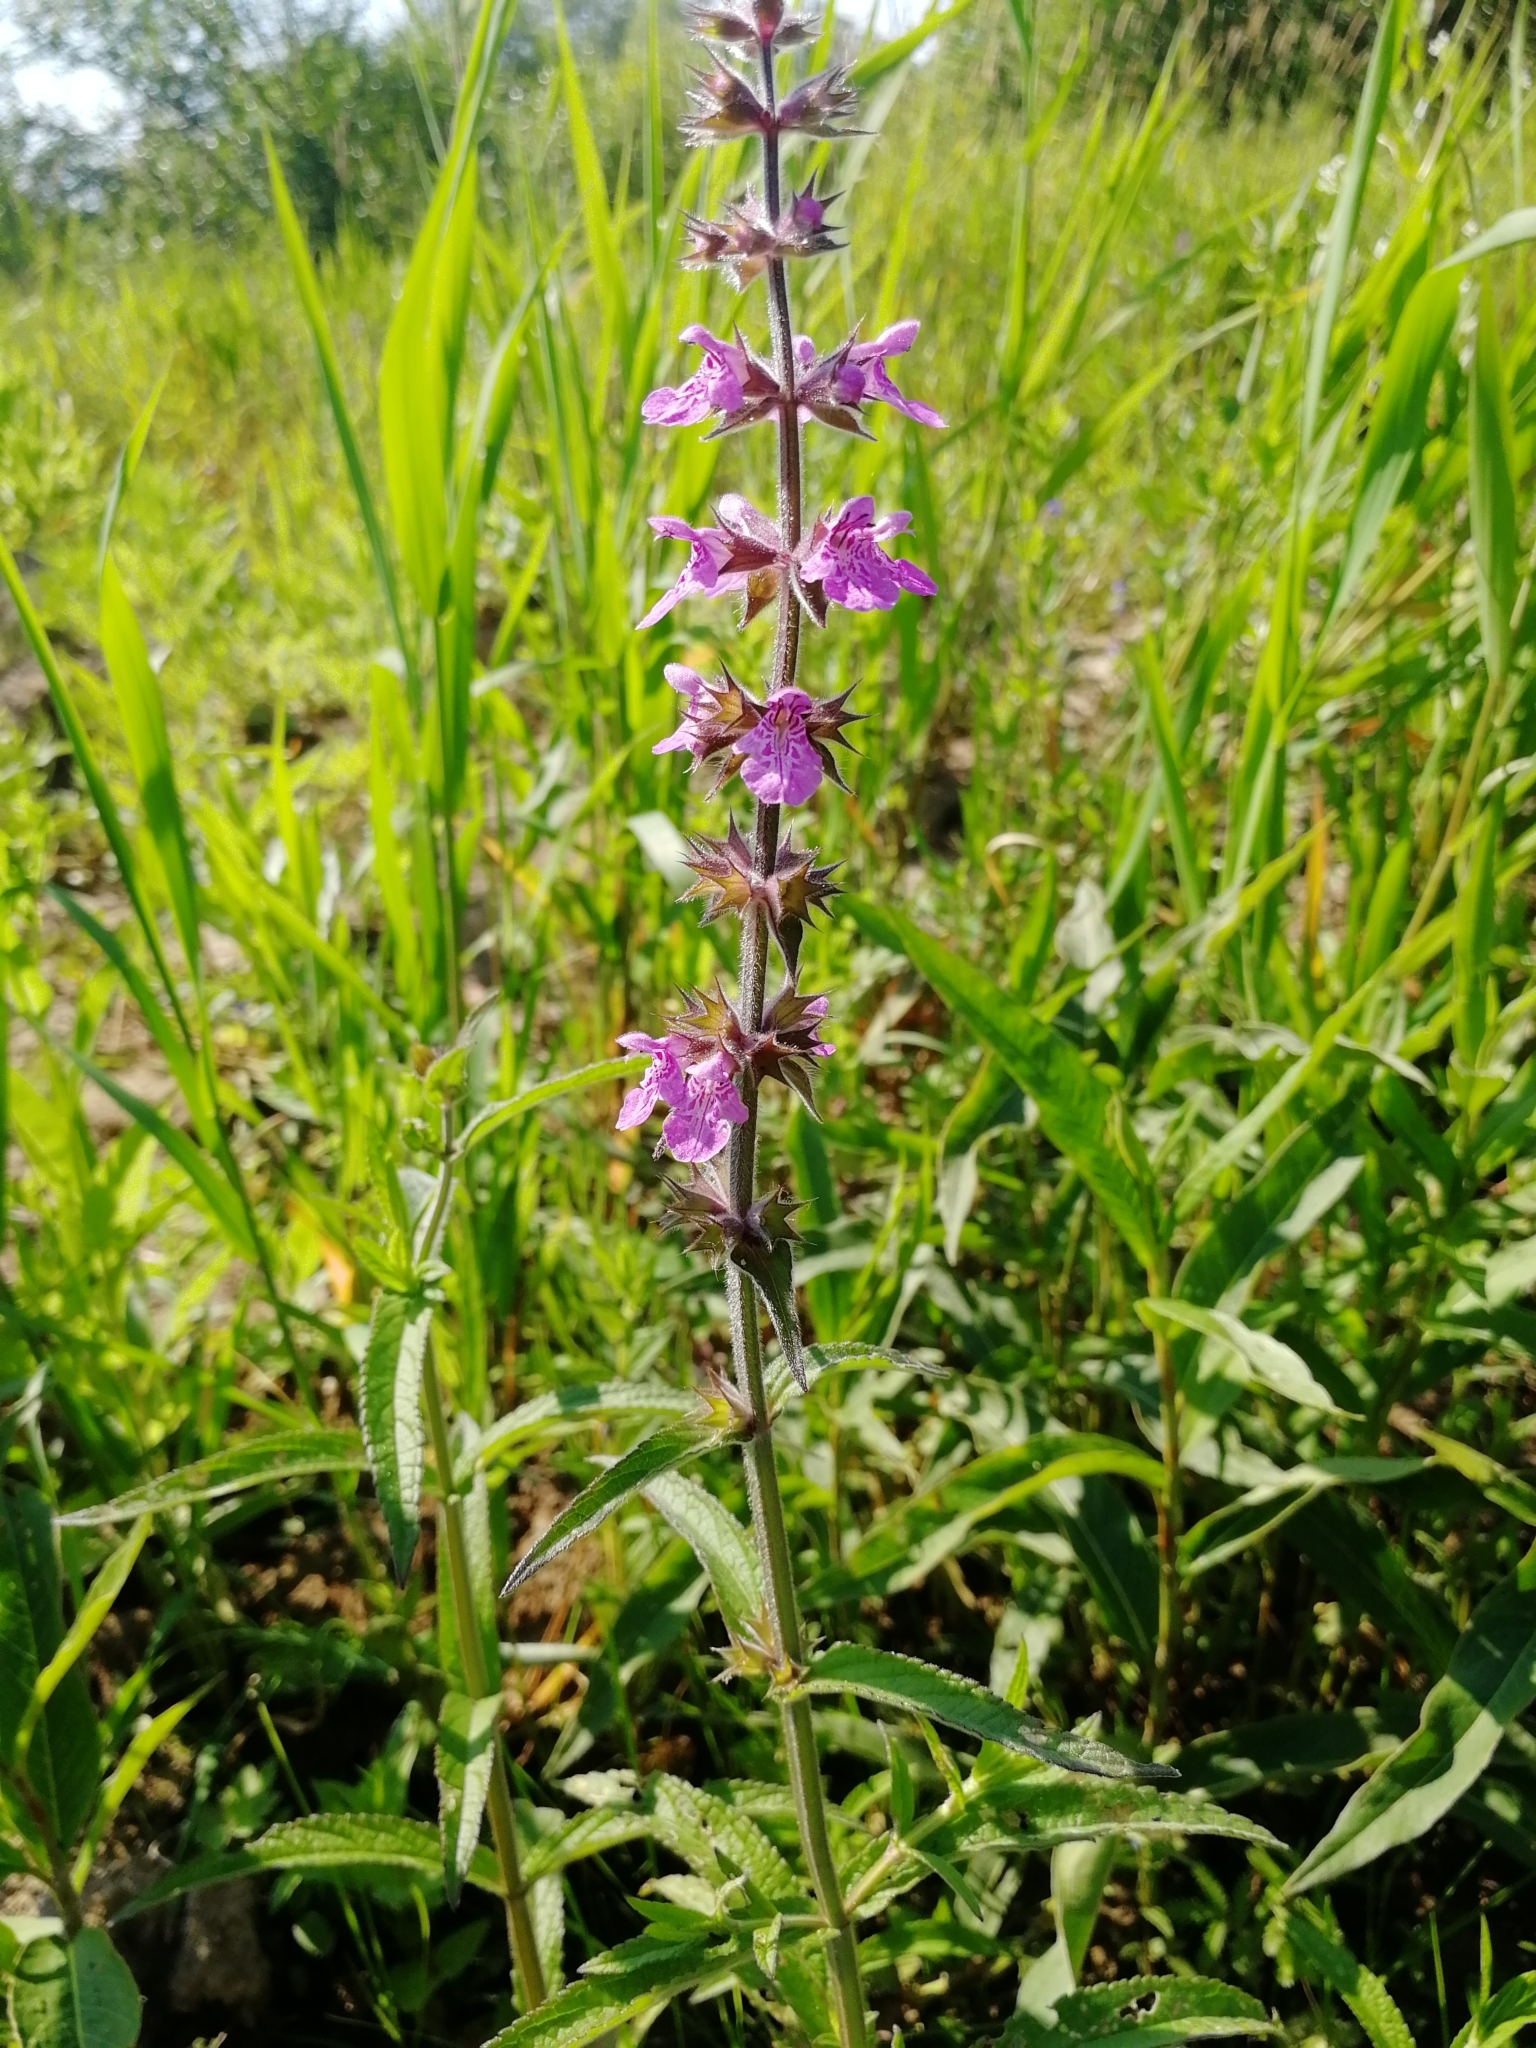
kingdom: Plantae
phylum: Tracheophyta
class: Magnoliopsida
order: Lamiales
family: Lamiaceae
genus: Stachys
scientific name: Stachys palustris
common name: Marsh woundwort
